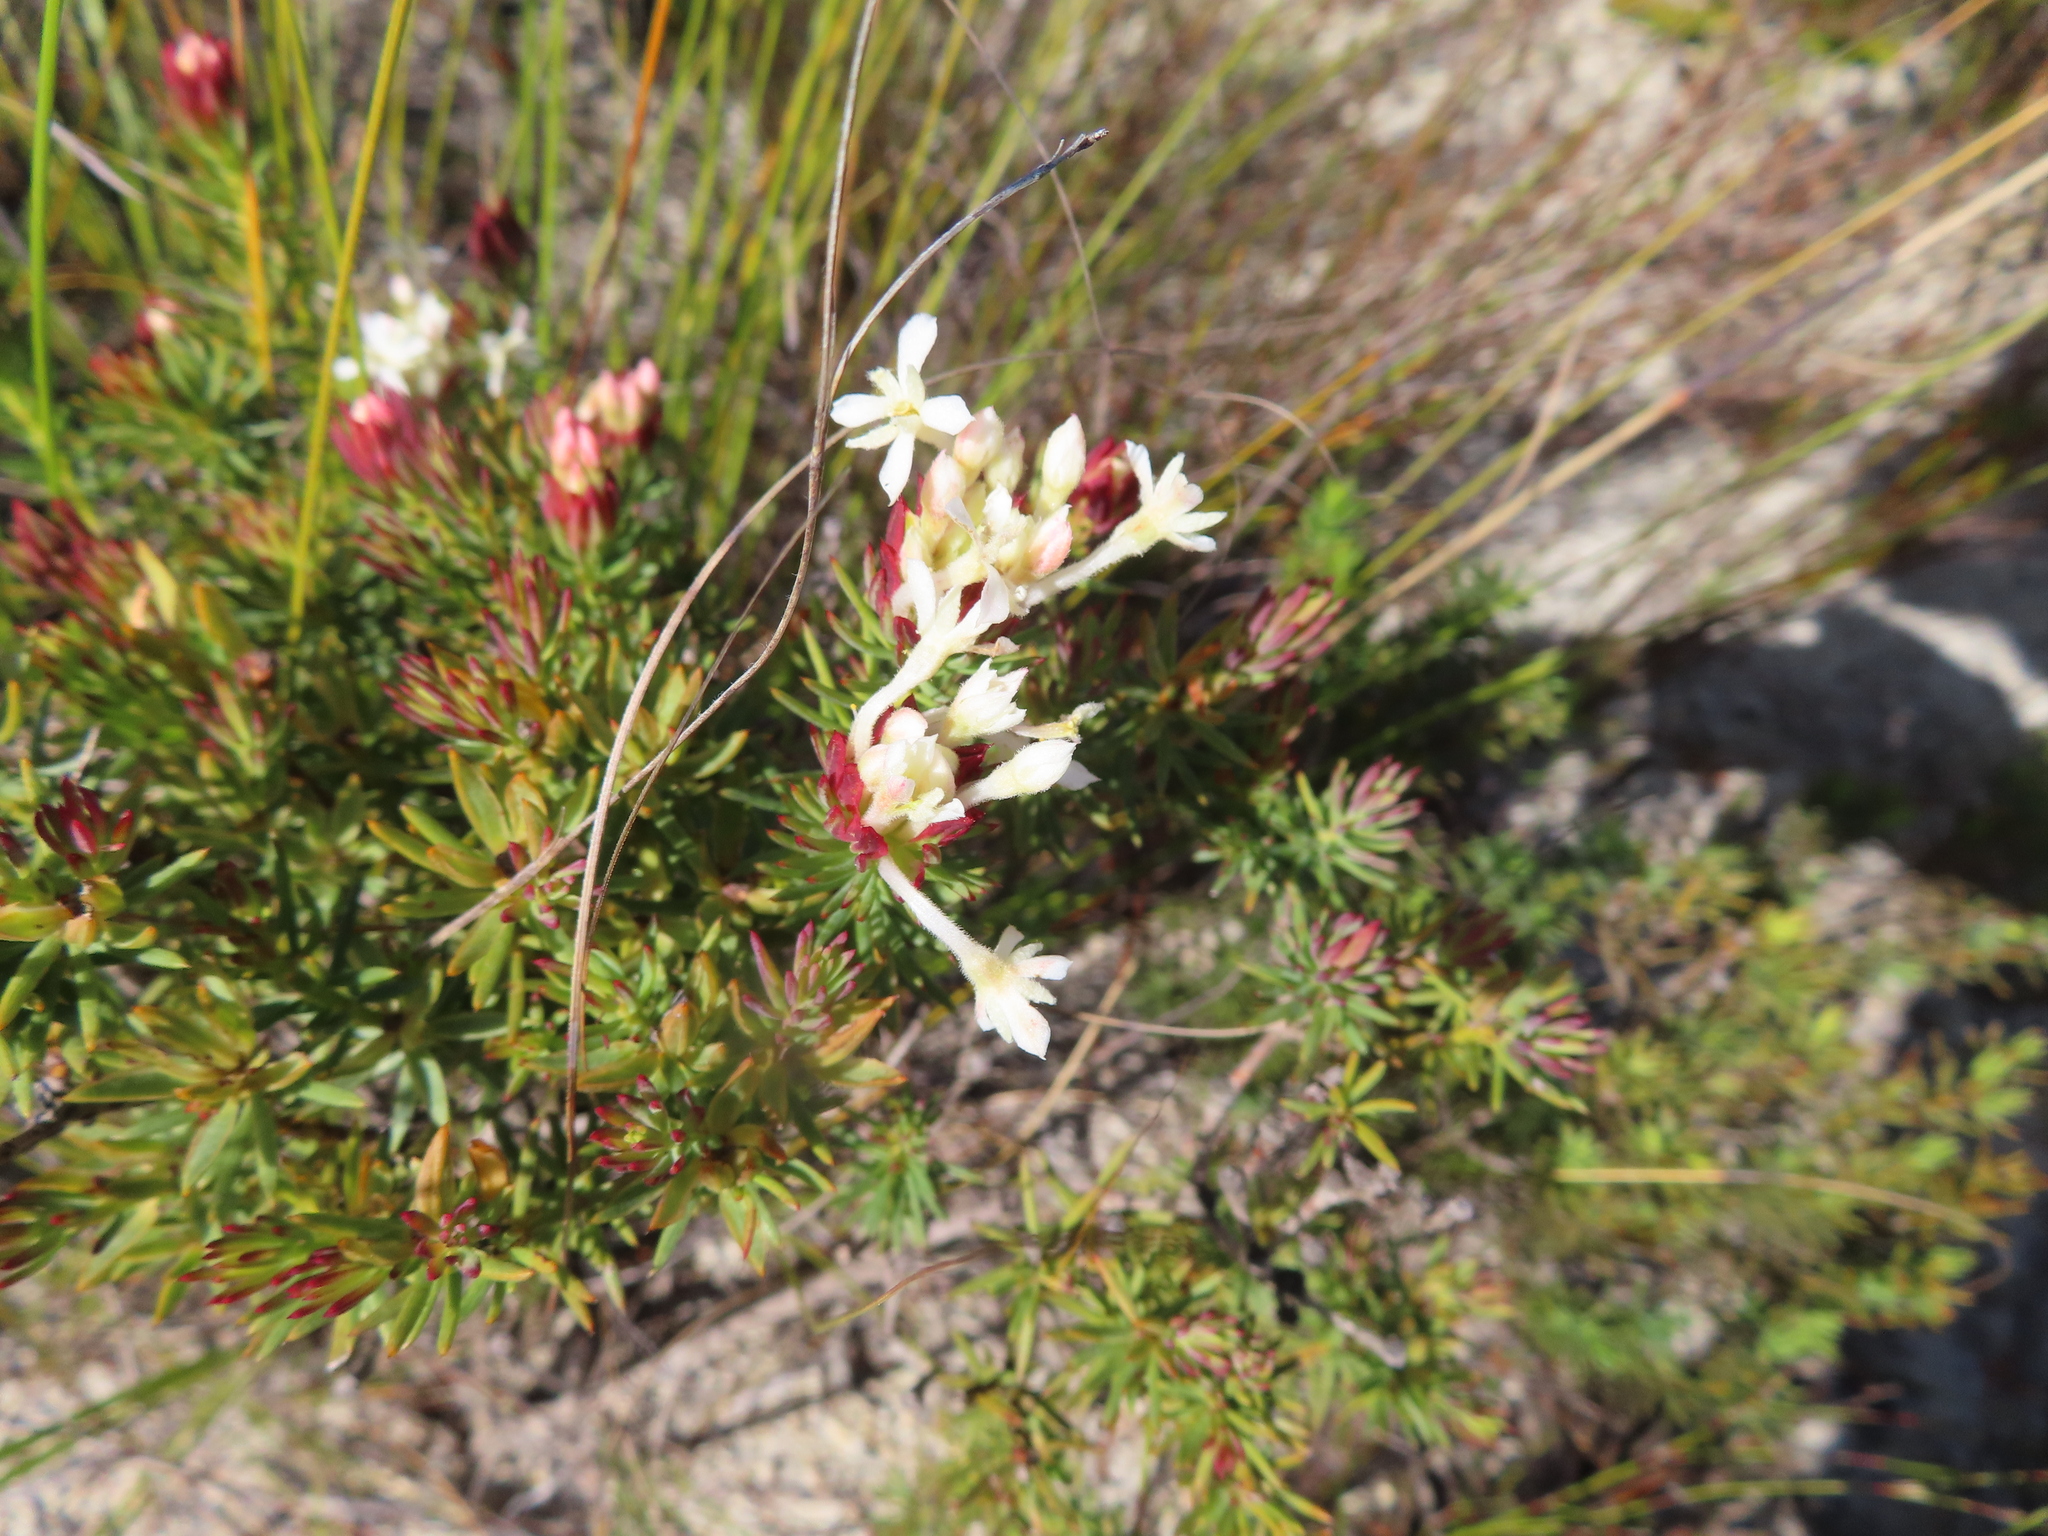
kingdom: Plantae
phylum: Tracheophyta
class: Magnoliopsida
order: Malvales
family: Thymelaeaceae
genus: Gnidia
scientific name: Gnidia pinifolia
